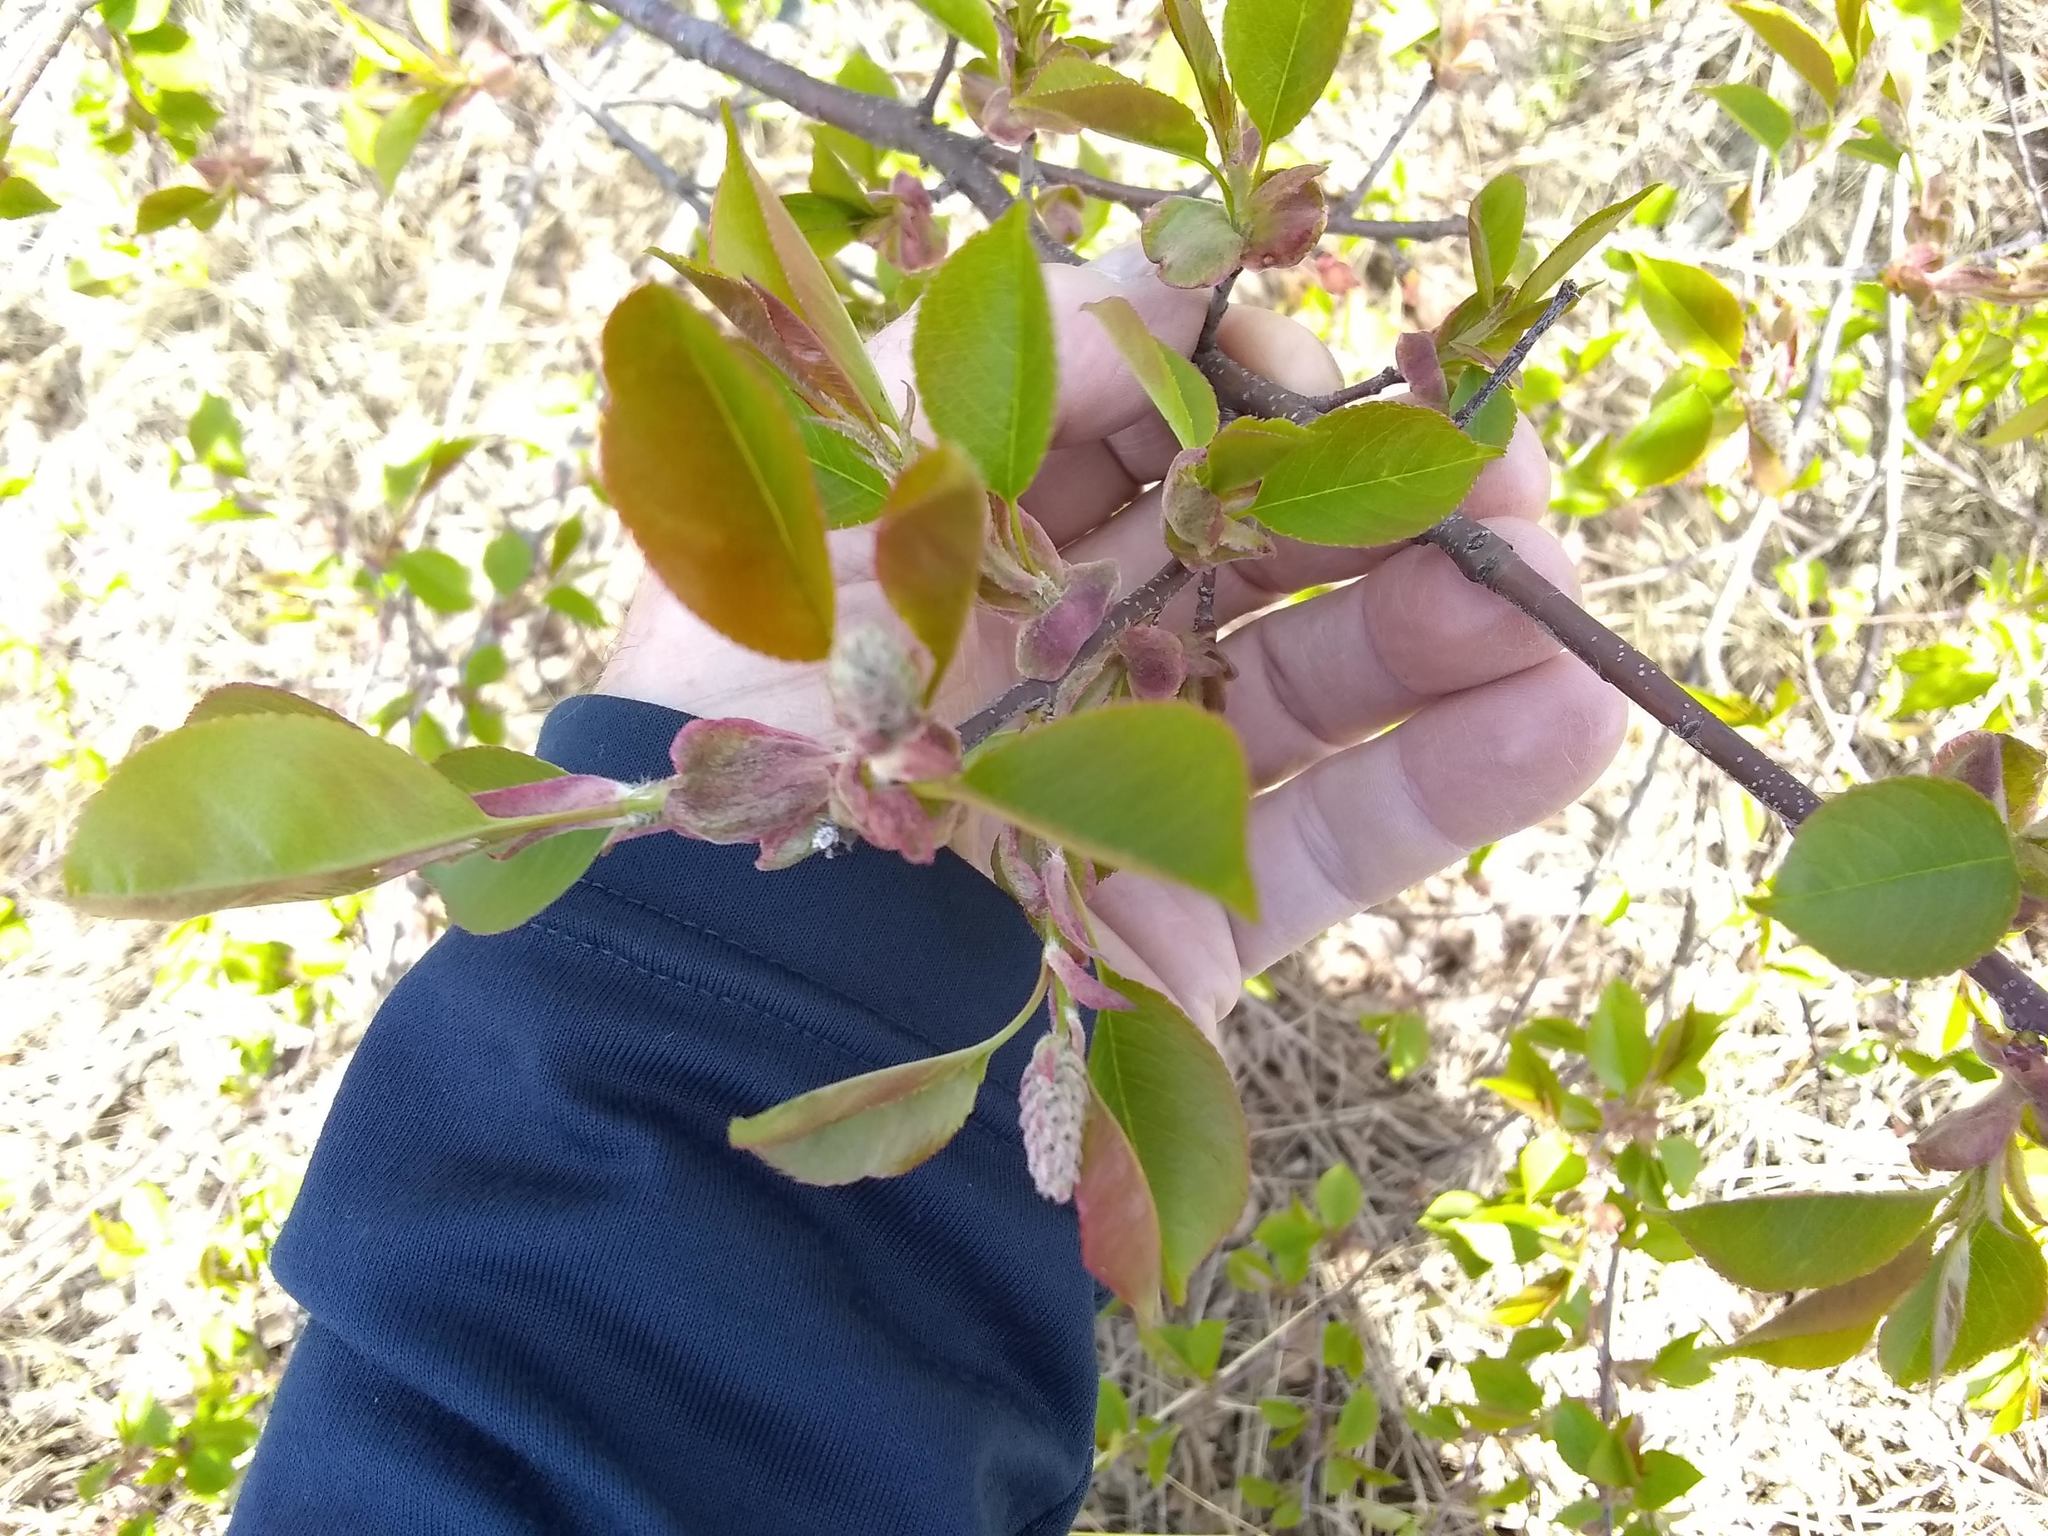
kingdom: Plantae
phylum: Tracheophyta
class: Magnoliopsida
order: Rosales
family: Rosaceae
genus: Prunus
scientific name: Prunus serotina
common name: Black cherry
